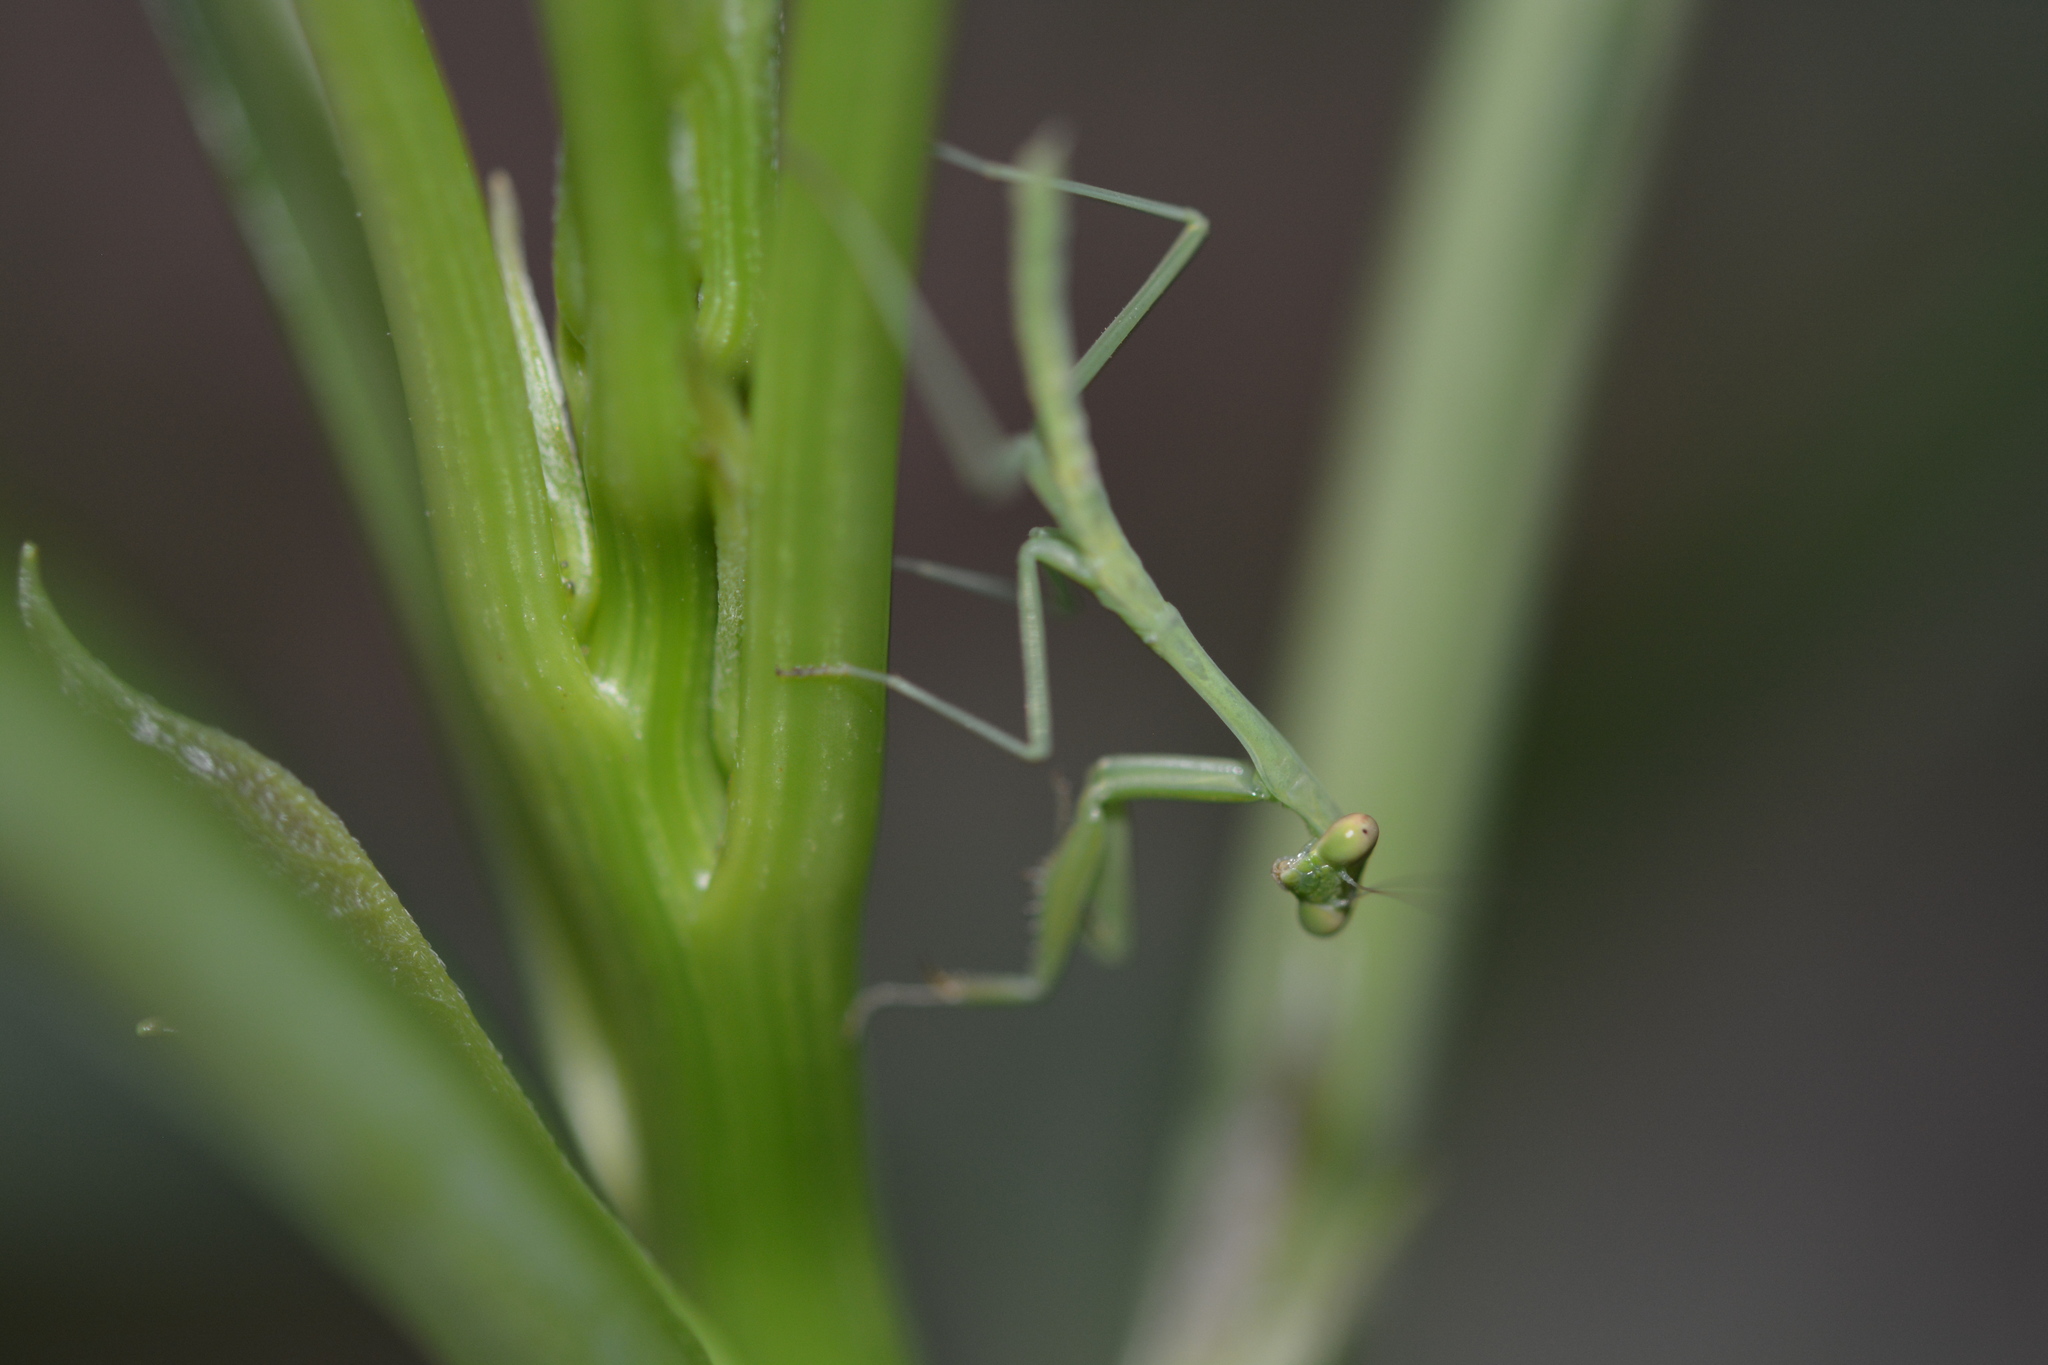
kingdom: Animalia
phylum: Arthropoda
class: Insecta
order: Mantodea
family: Mantidae
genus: Stagmomantis
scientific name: Stagmomantis carolina
